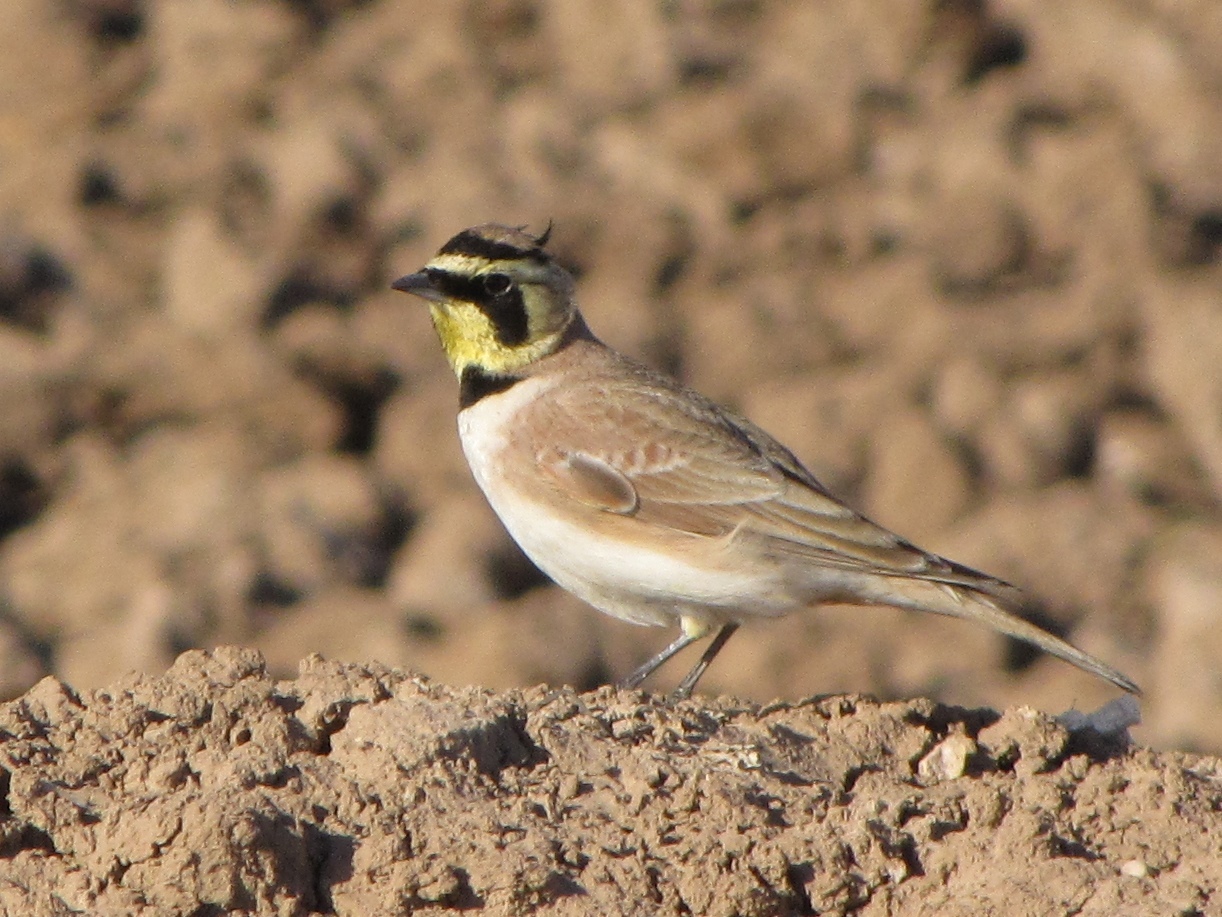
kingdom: Animalia
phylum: Chordata
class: Aves
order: Passeriformes
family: Alaudidae
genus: Eremophila
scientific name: Eremophila alpestris
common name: Horned lark
